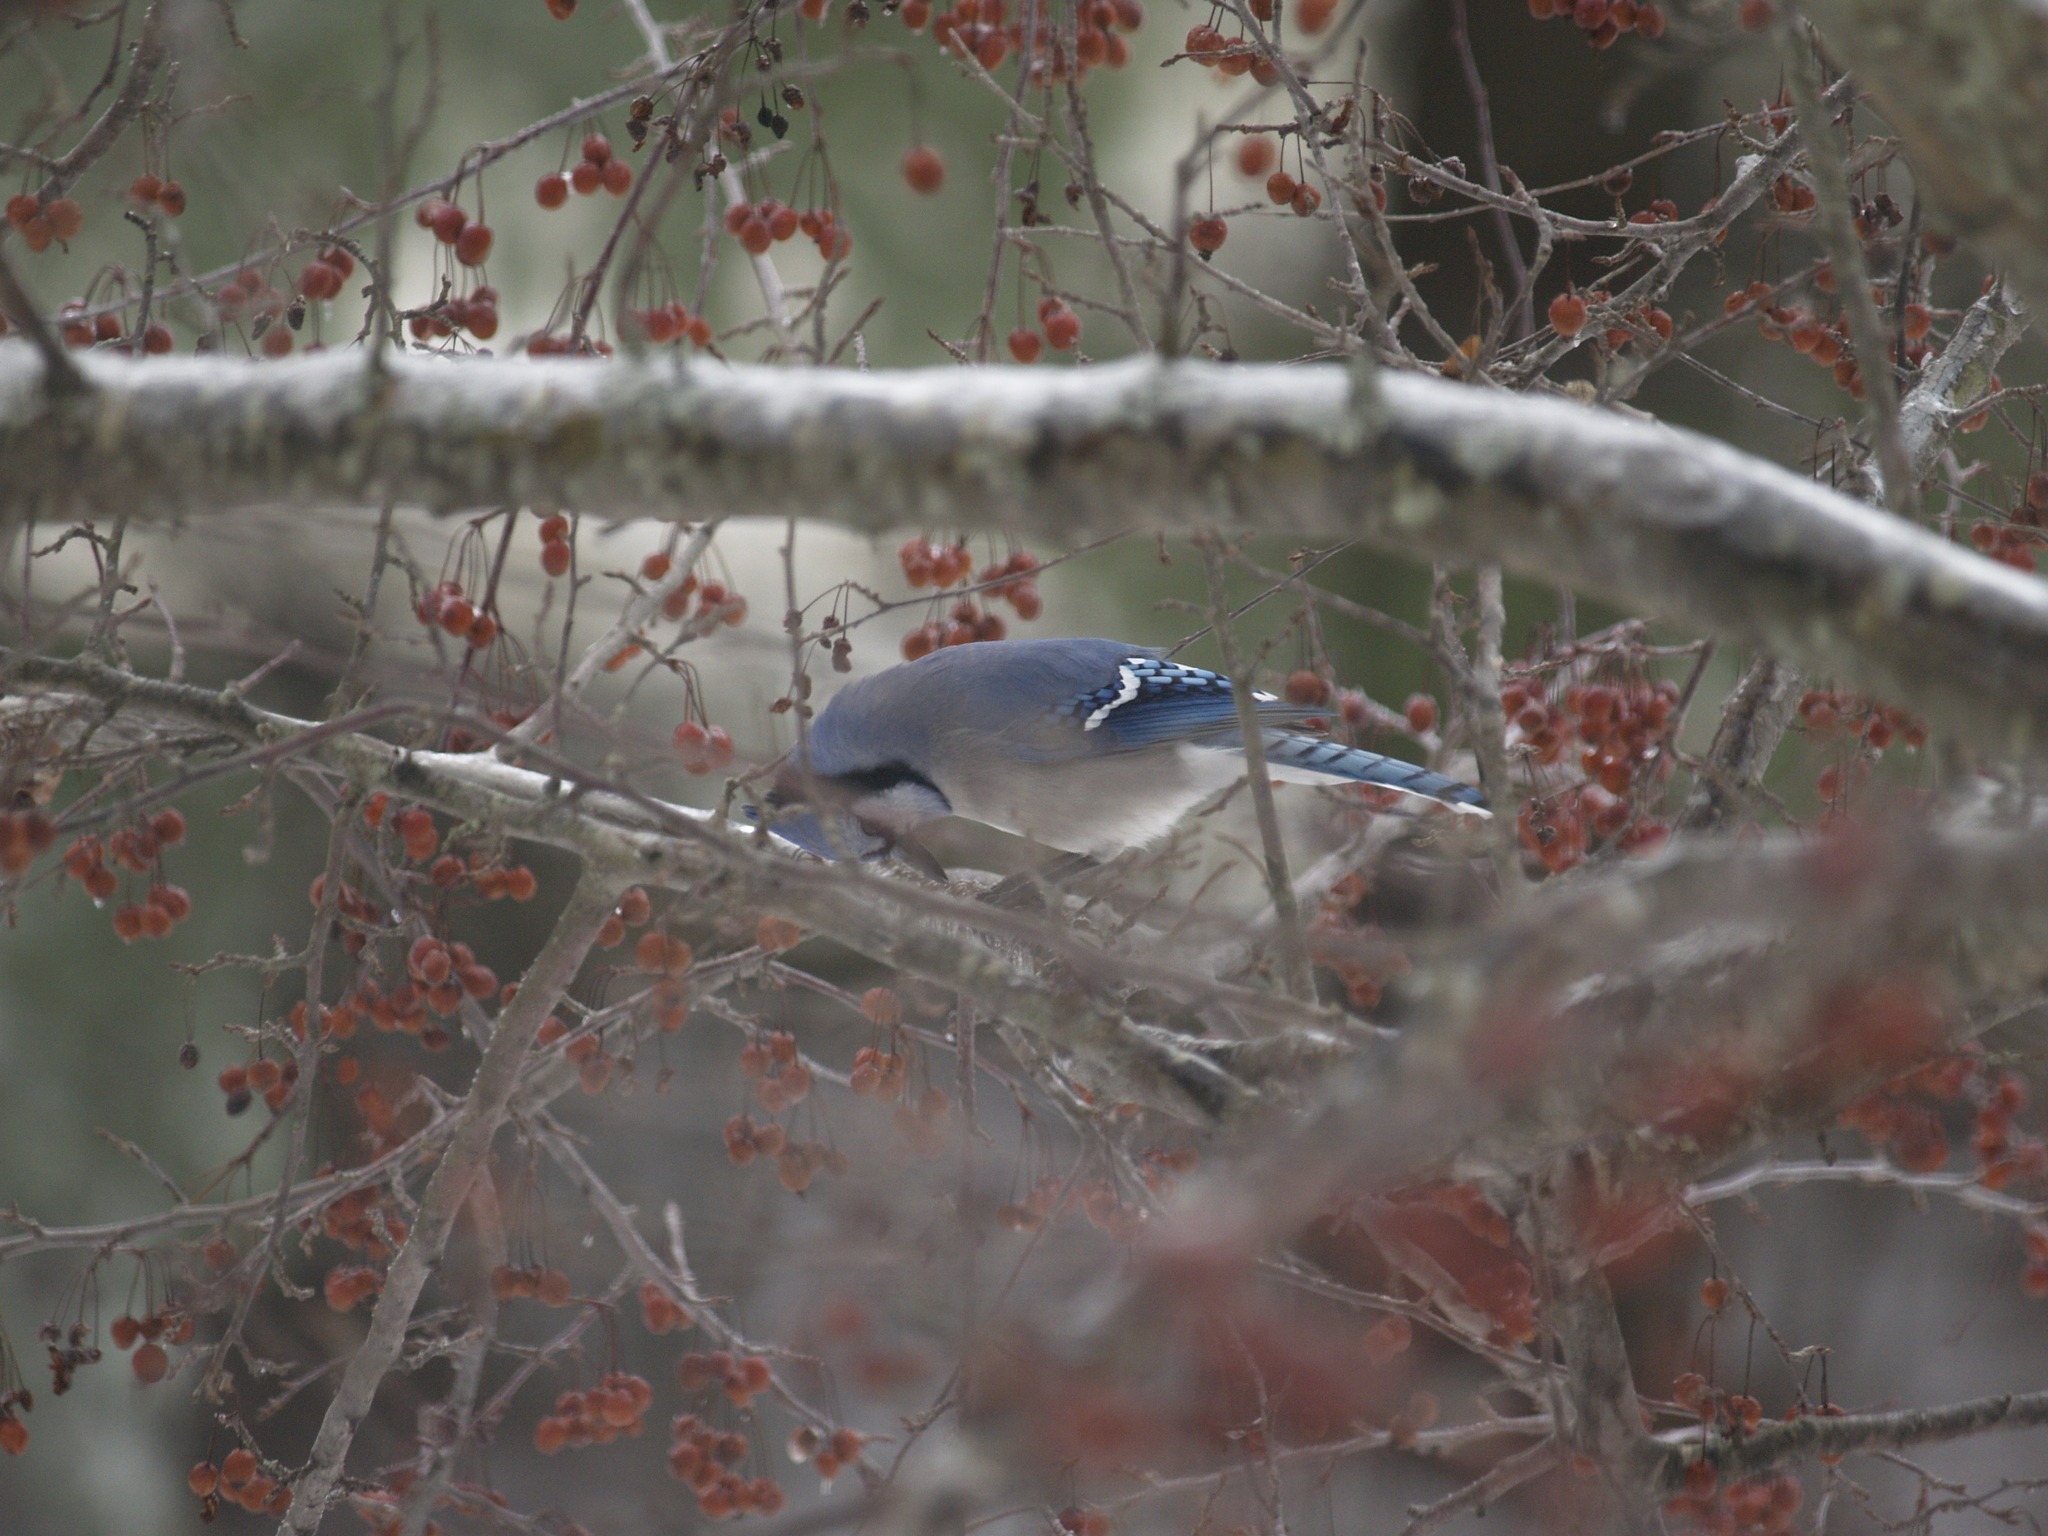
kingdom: Animalia
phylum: Chordata
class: Aves
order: Passeriformes
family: Corvidae
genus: Cyanocitta
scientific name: Cyanocitta cristata
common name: Blue jay
